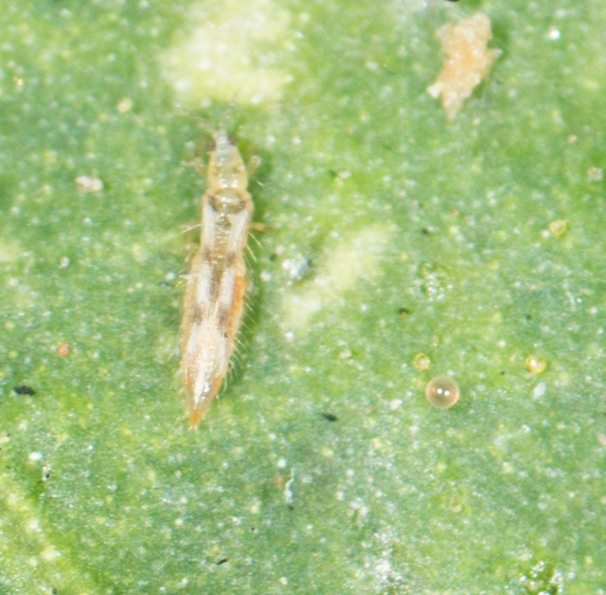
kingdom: Animalia
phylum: Arthropoda
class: Insecta
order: Thysanoptera
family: Thripidae
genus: Scolothrips
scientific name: Scolothrips sexmaculatus
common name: Common thrip
